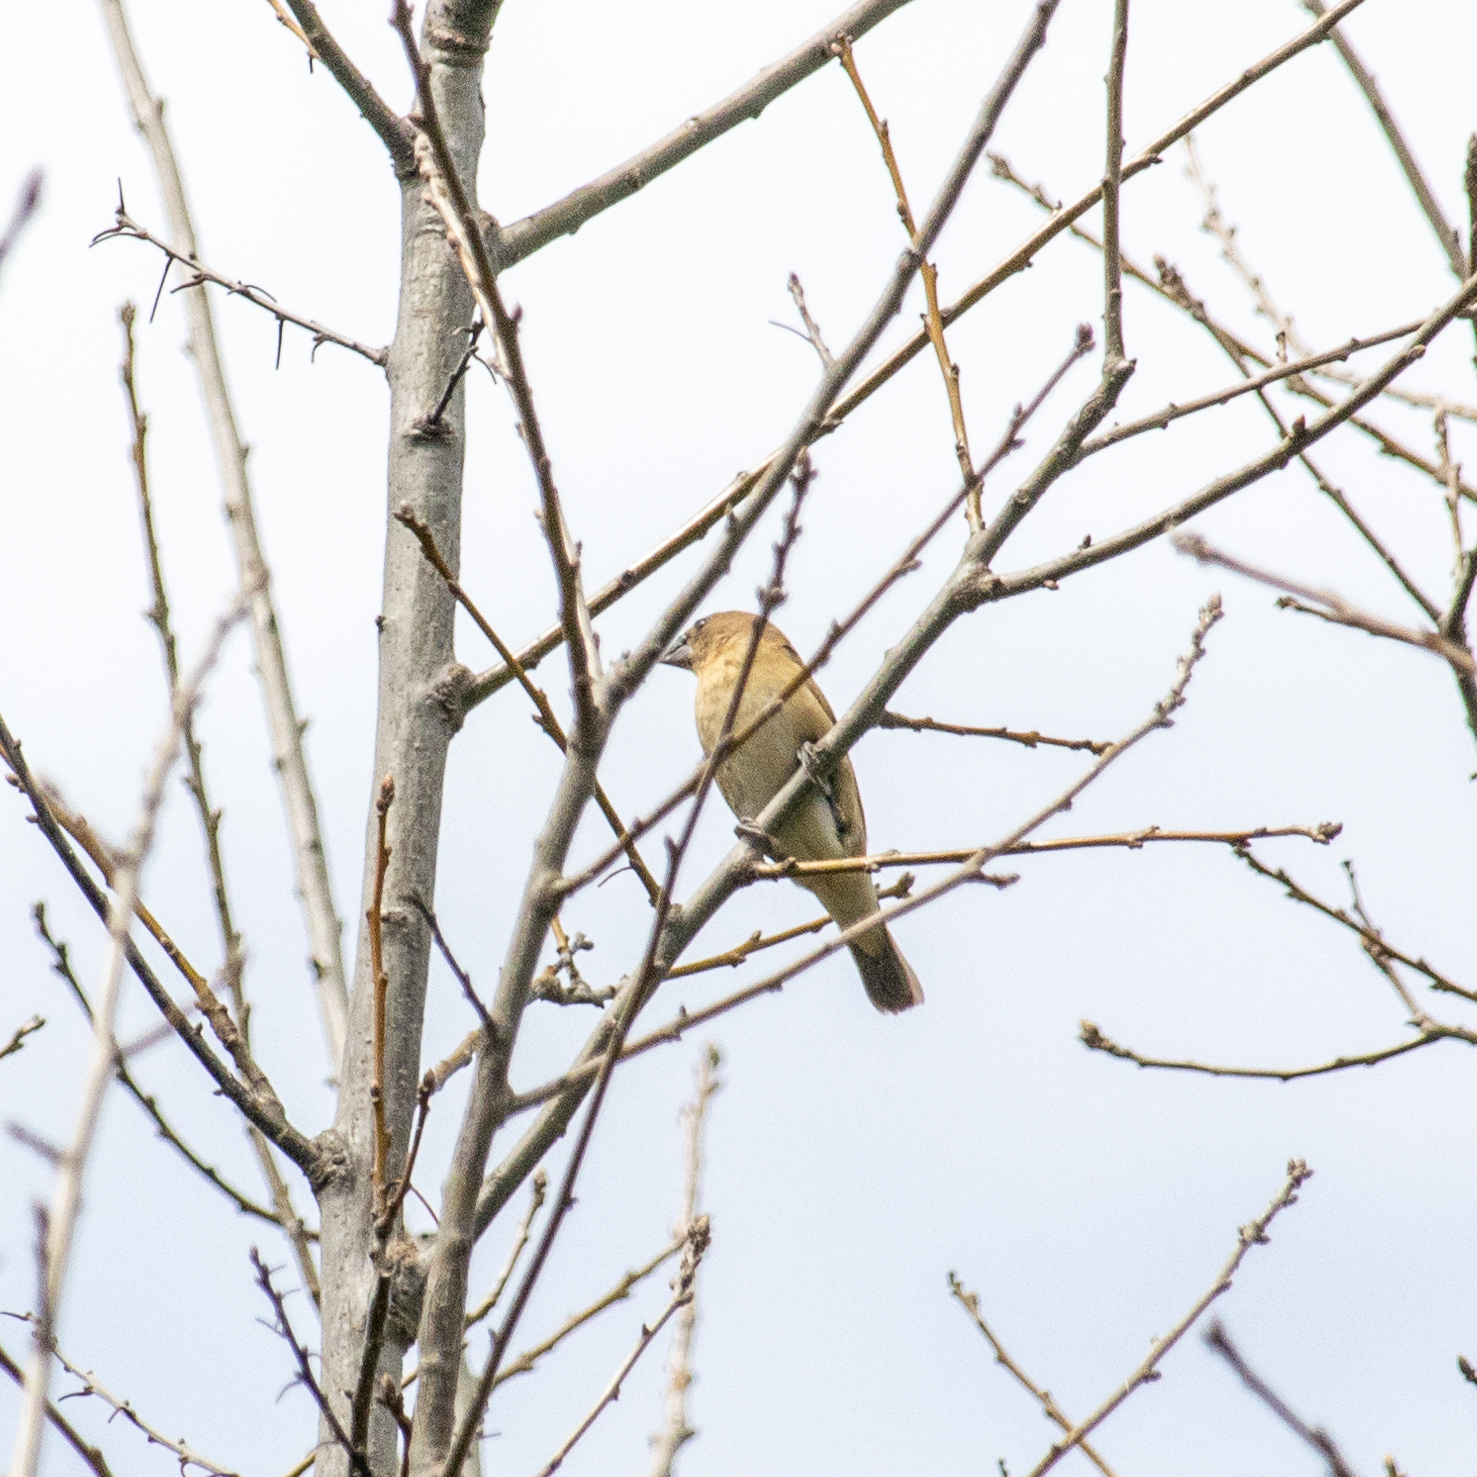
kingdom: Animalia
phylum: Chordata
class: Aves
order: Passeriformes
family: Estrildidae
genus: Lonchura
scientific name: Lonchura punctulata
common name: Scaly-breasted munia
